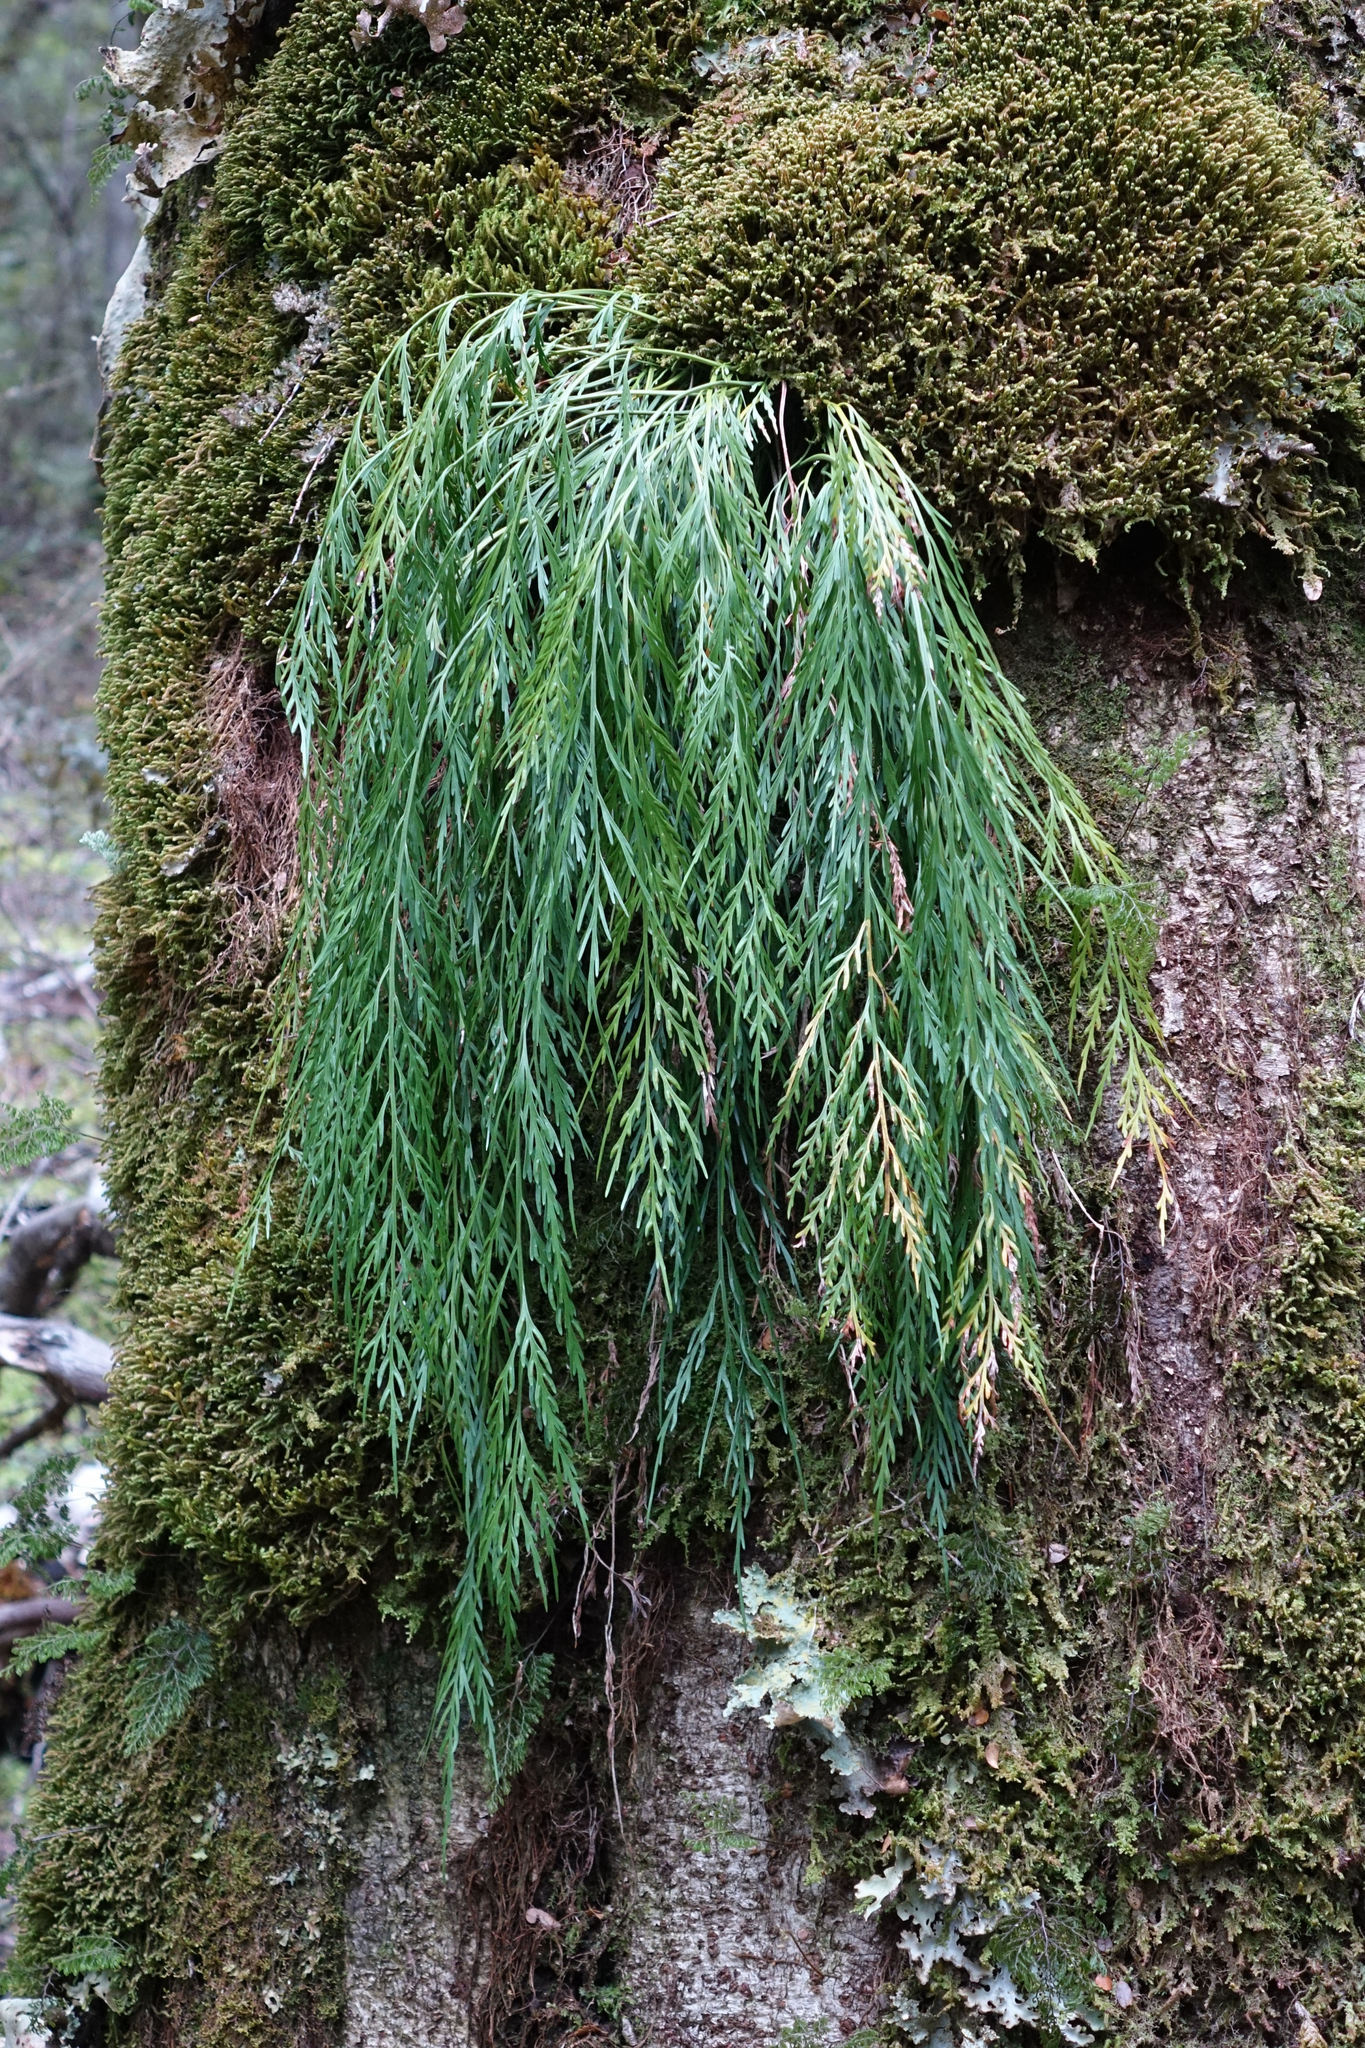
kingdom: Plantae
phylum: Tracheophyta
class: Polypodiopsida
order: Polypodiales
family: Aspleniaceae
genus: Asplenium
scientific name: Asplenium flaccidum
